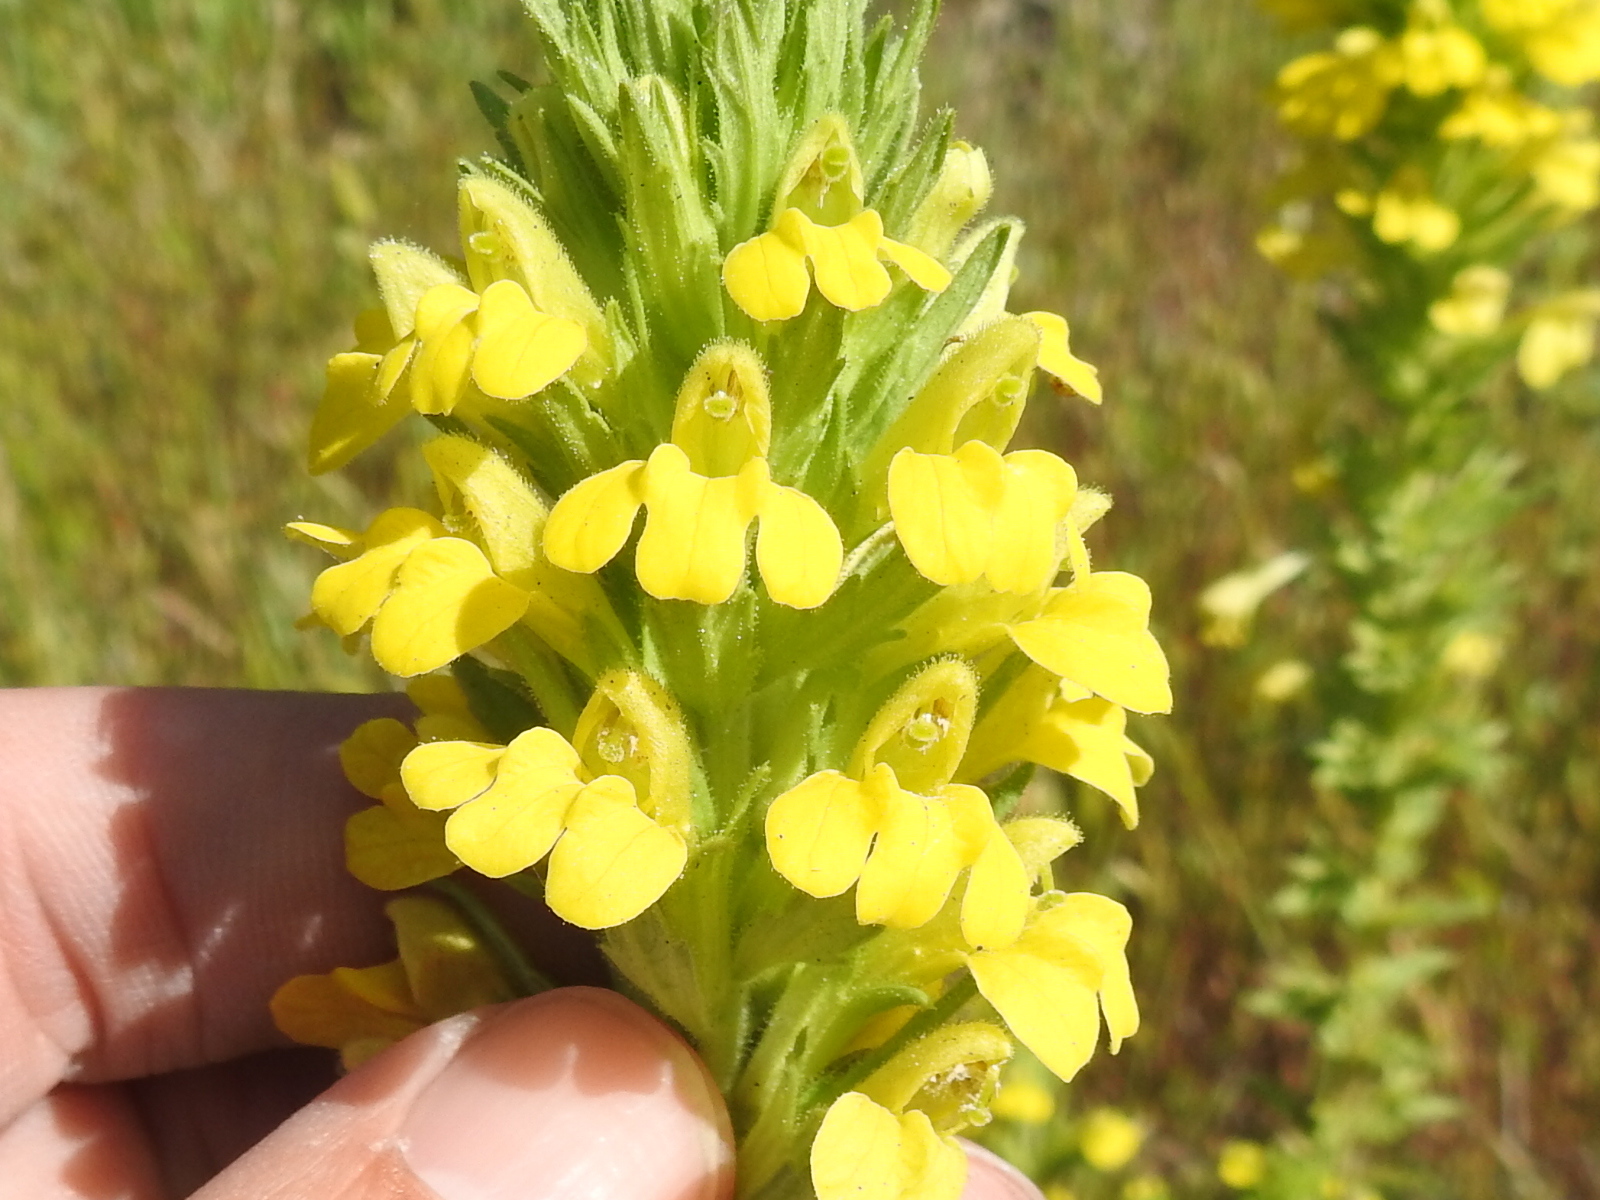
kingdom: Plantae
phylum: Tracheophyta
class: Magnoliopsida
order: Lamiales
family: Orobanchaceae
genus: Bellardia
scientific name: Bellardia viscosa
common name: Sticky parentucellia
